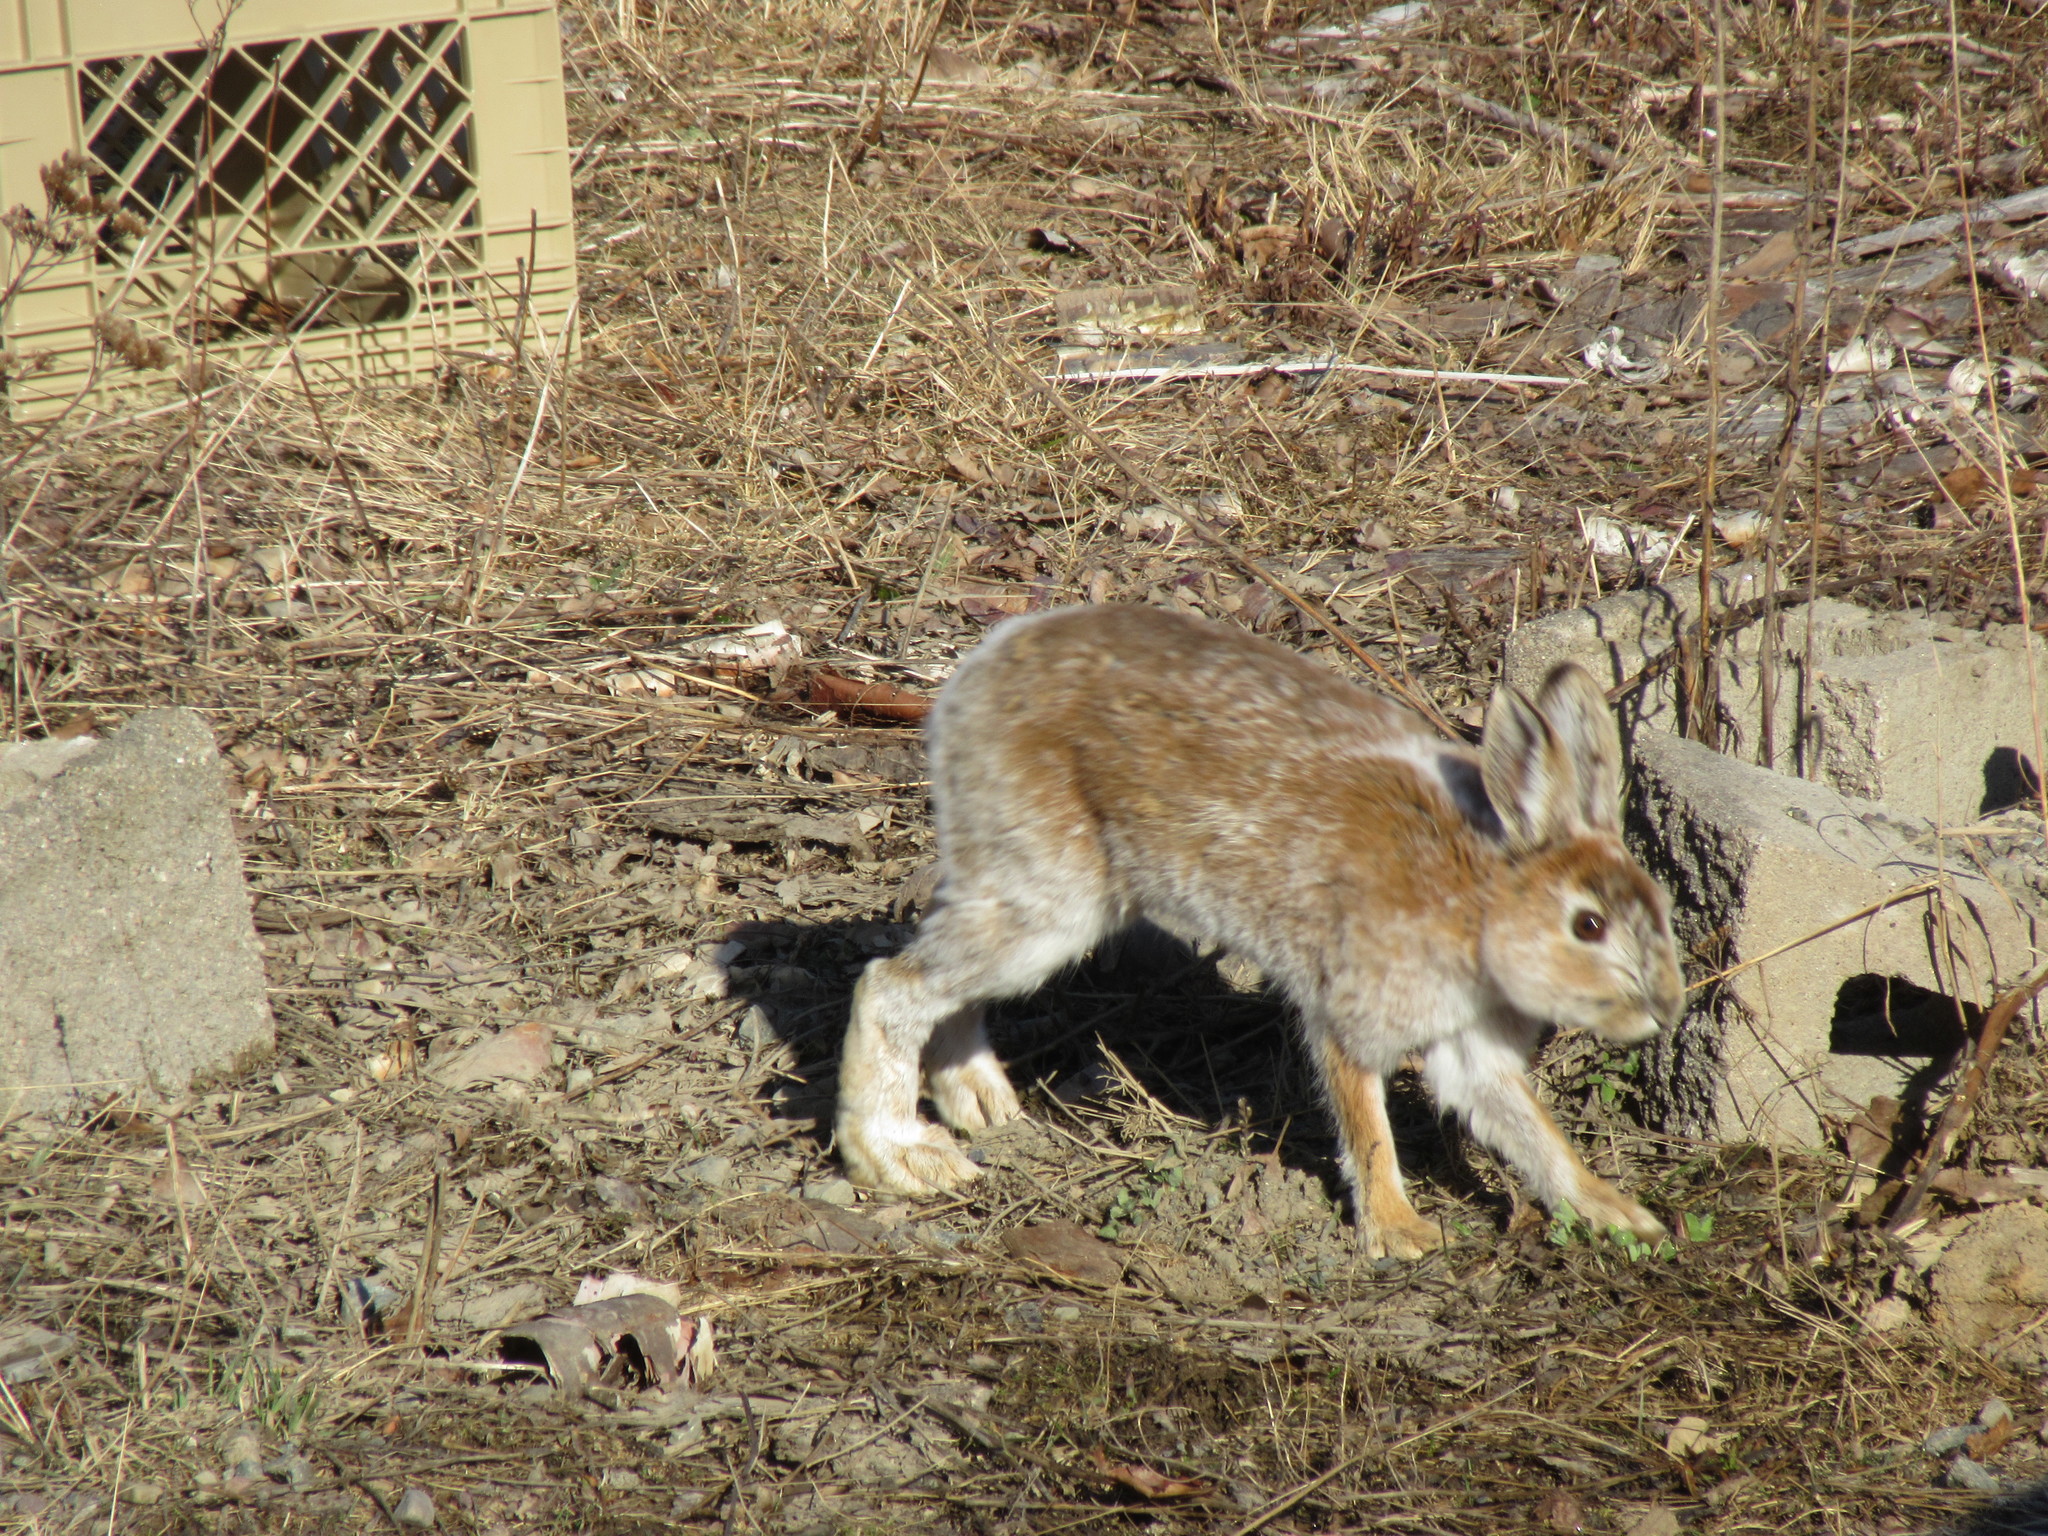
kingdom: Animalia
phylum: Chordata
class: Mammalia
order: Lagomorpha
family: Leporidae
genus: Lepus
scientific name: Lepus americanus
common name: Snowshoe hare
